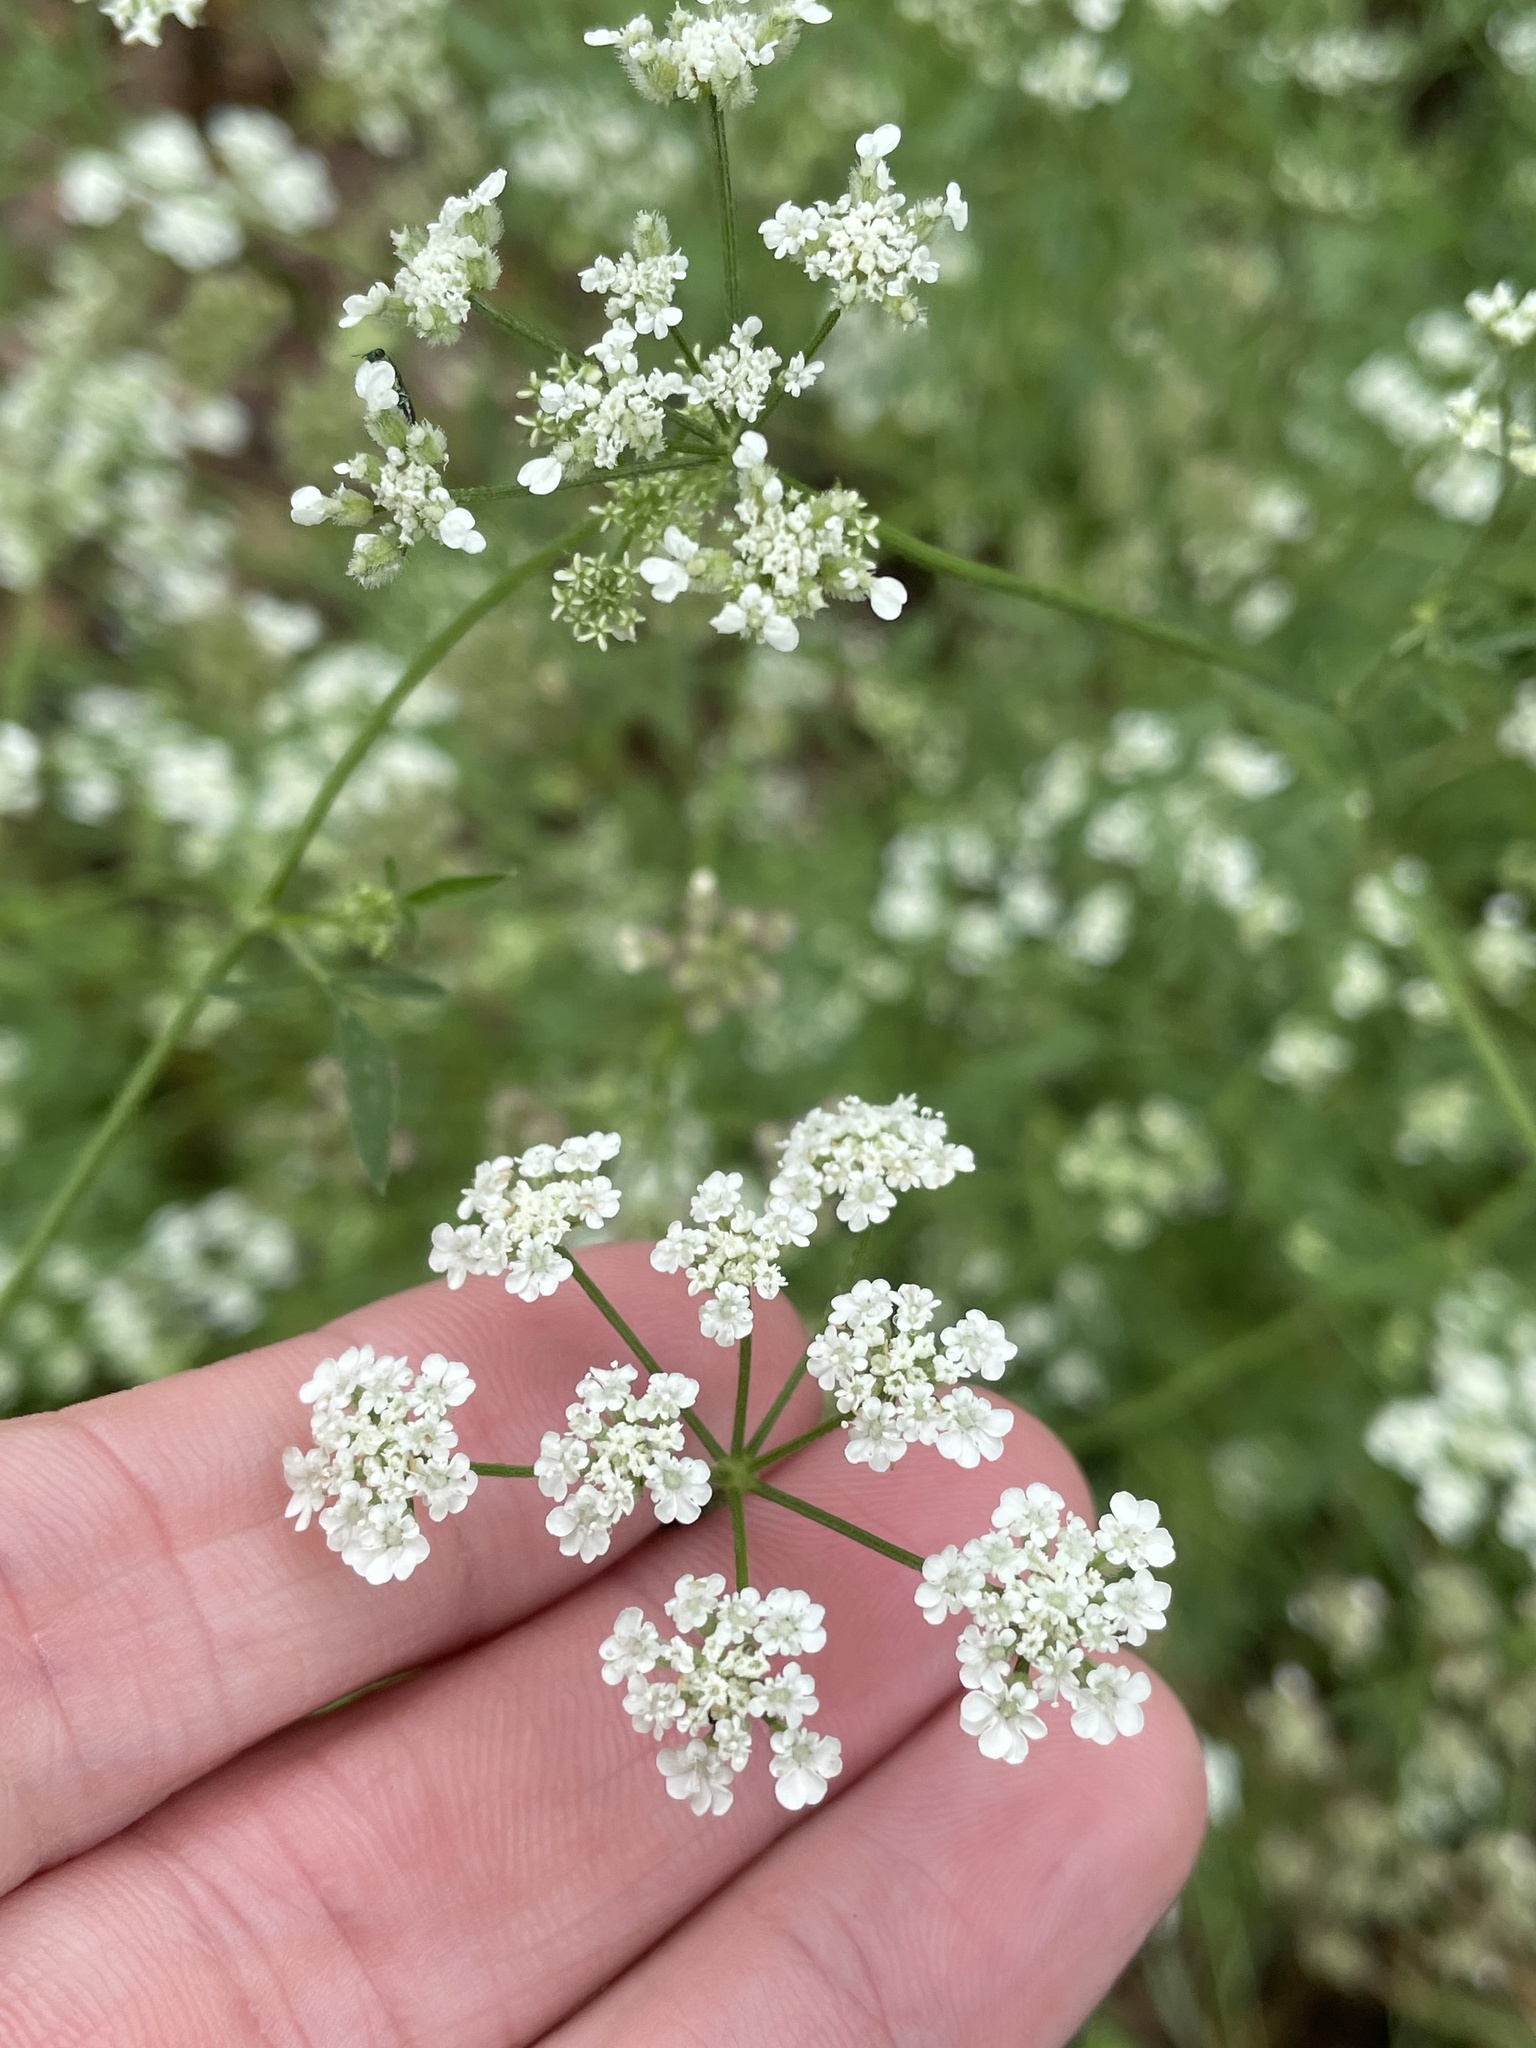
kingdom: Plantae
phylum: Tracheophyta
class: Magnoliopsida
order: Apiales
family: Apiaceae
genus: Torilis
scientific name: Torilis arvensis
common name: Spreading hedge-parsley
